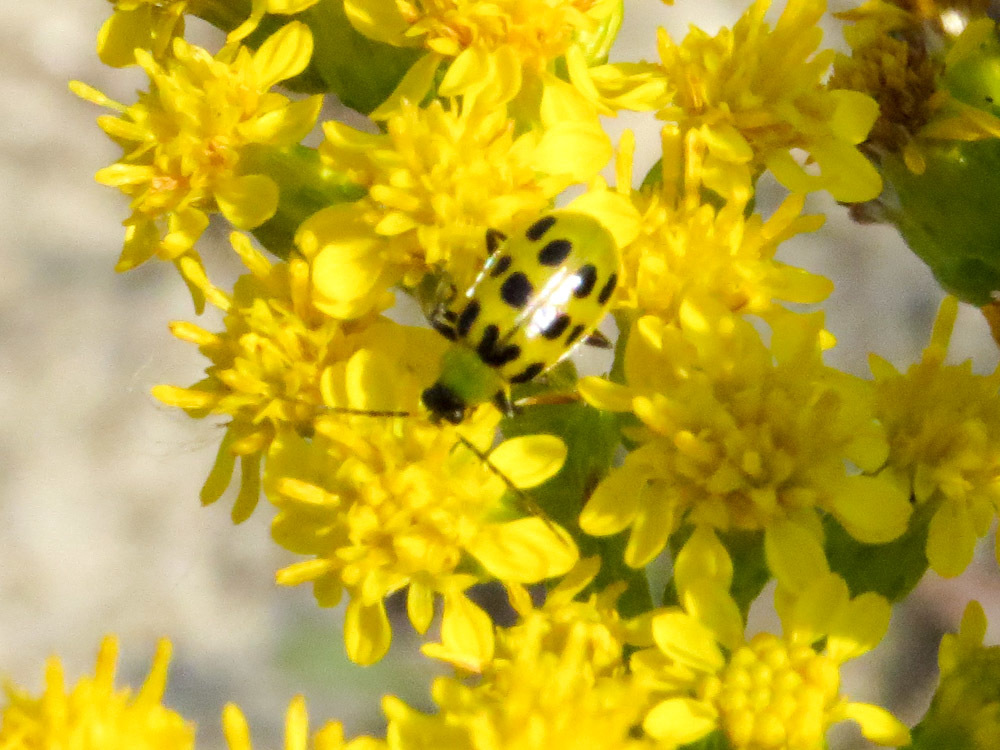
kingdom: Animalia
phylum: Arthropoda
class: Insecta
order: Coleoptera
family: Chrysomelidae
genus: Diabrotica
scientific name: Diabrotica undecimpunctata
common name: Spotted cucumber beetle
